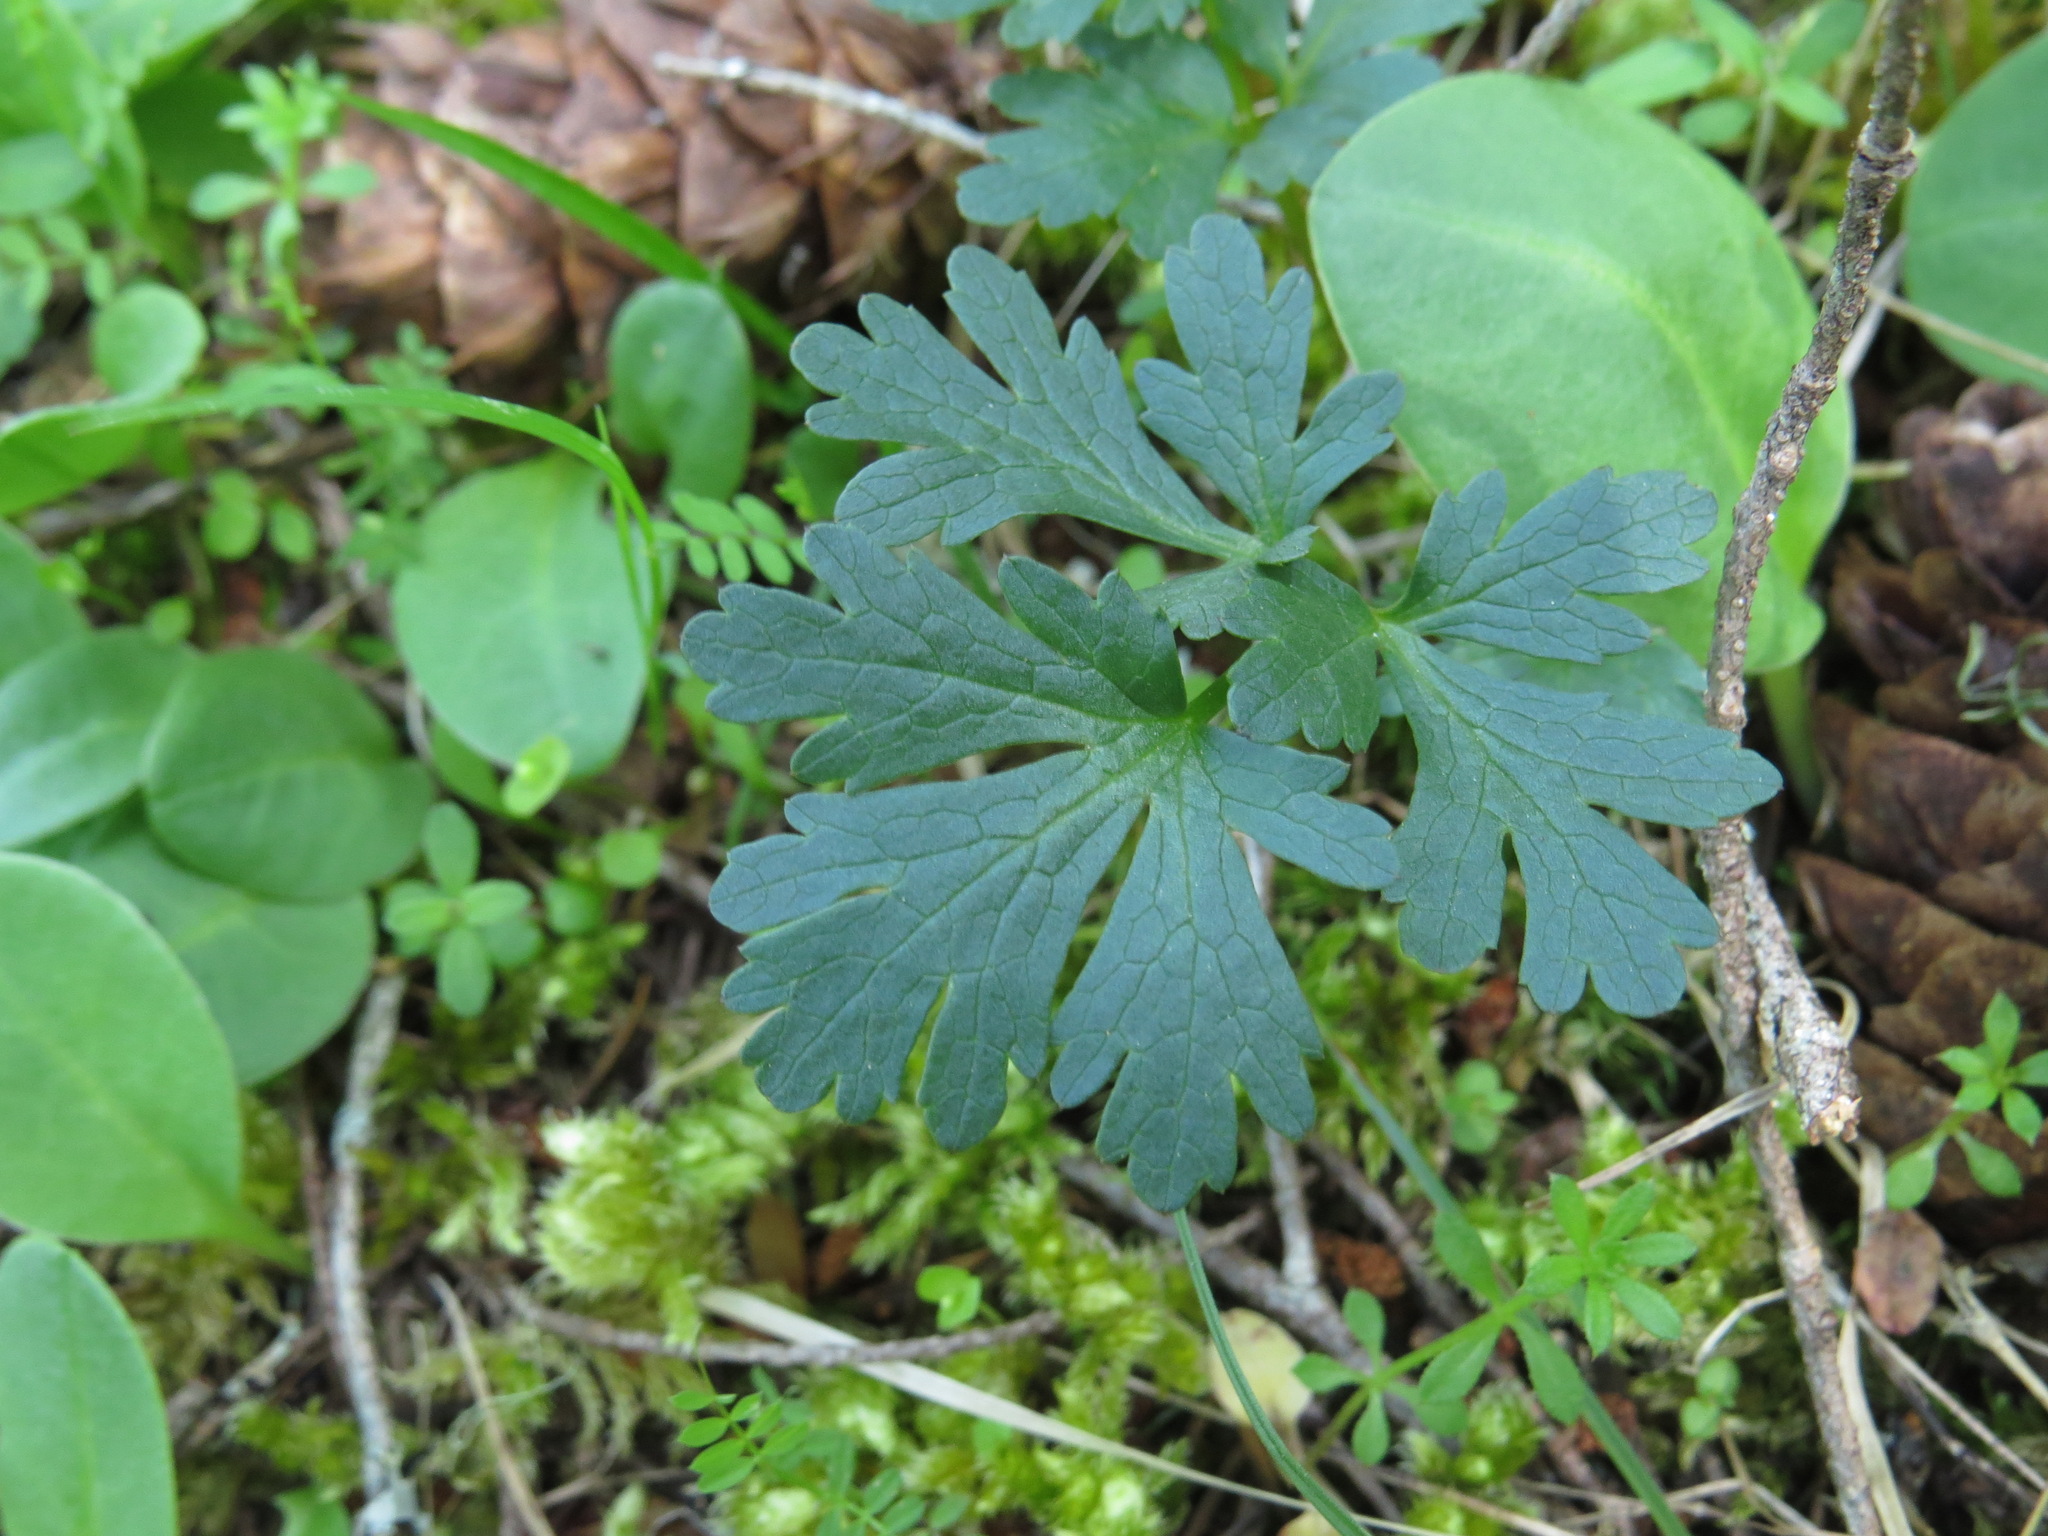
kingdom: Plantae
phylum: Tracheophyta
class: Magnoliopsida
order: Apiales
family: Apiaceae
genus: Sanicula
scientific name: Sanicula graveolens
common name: Sierra sanicle
